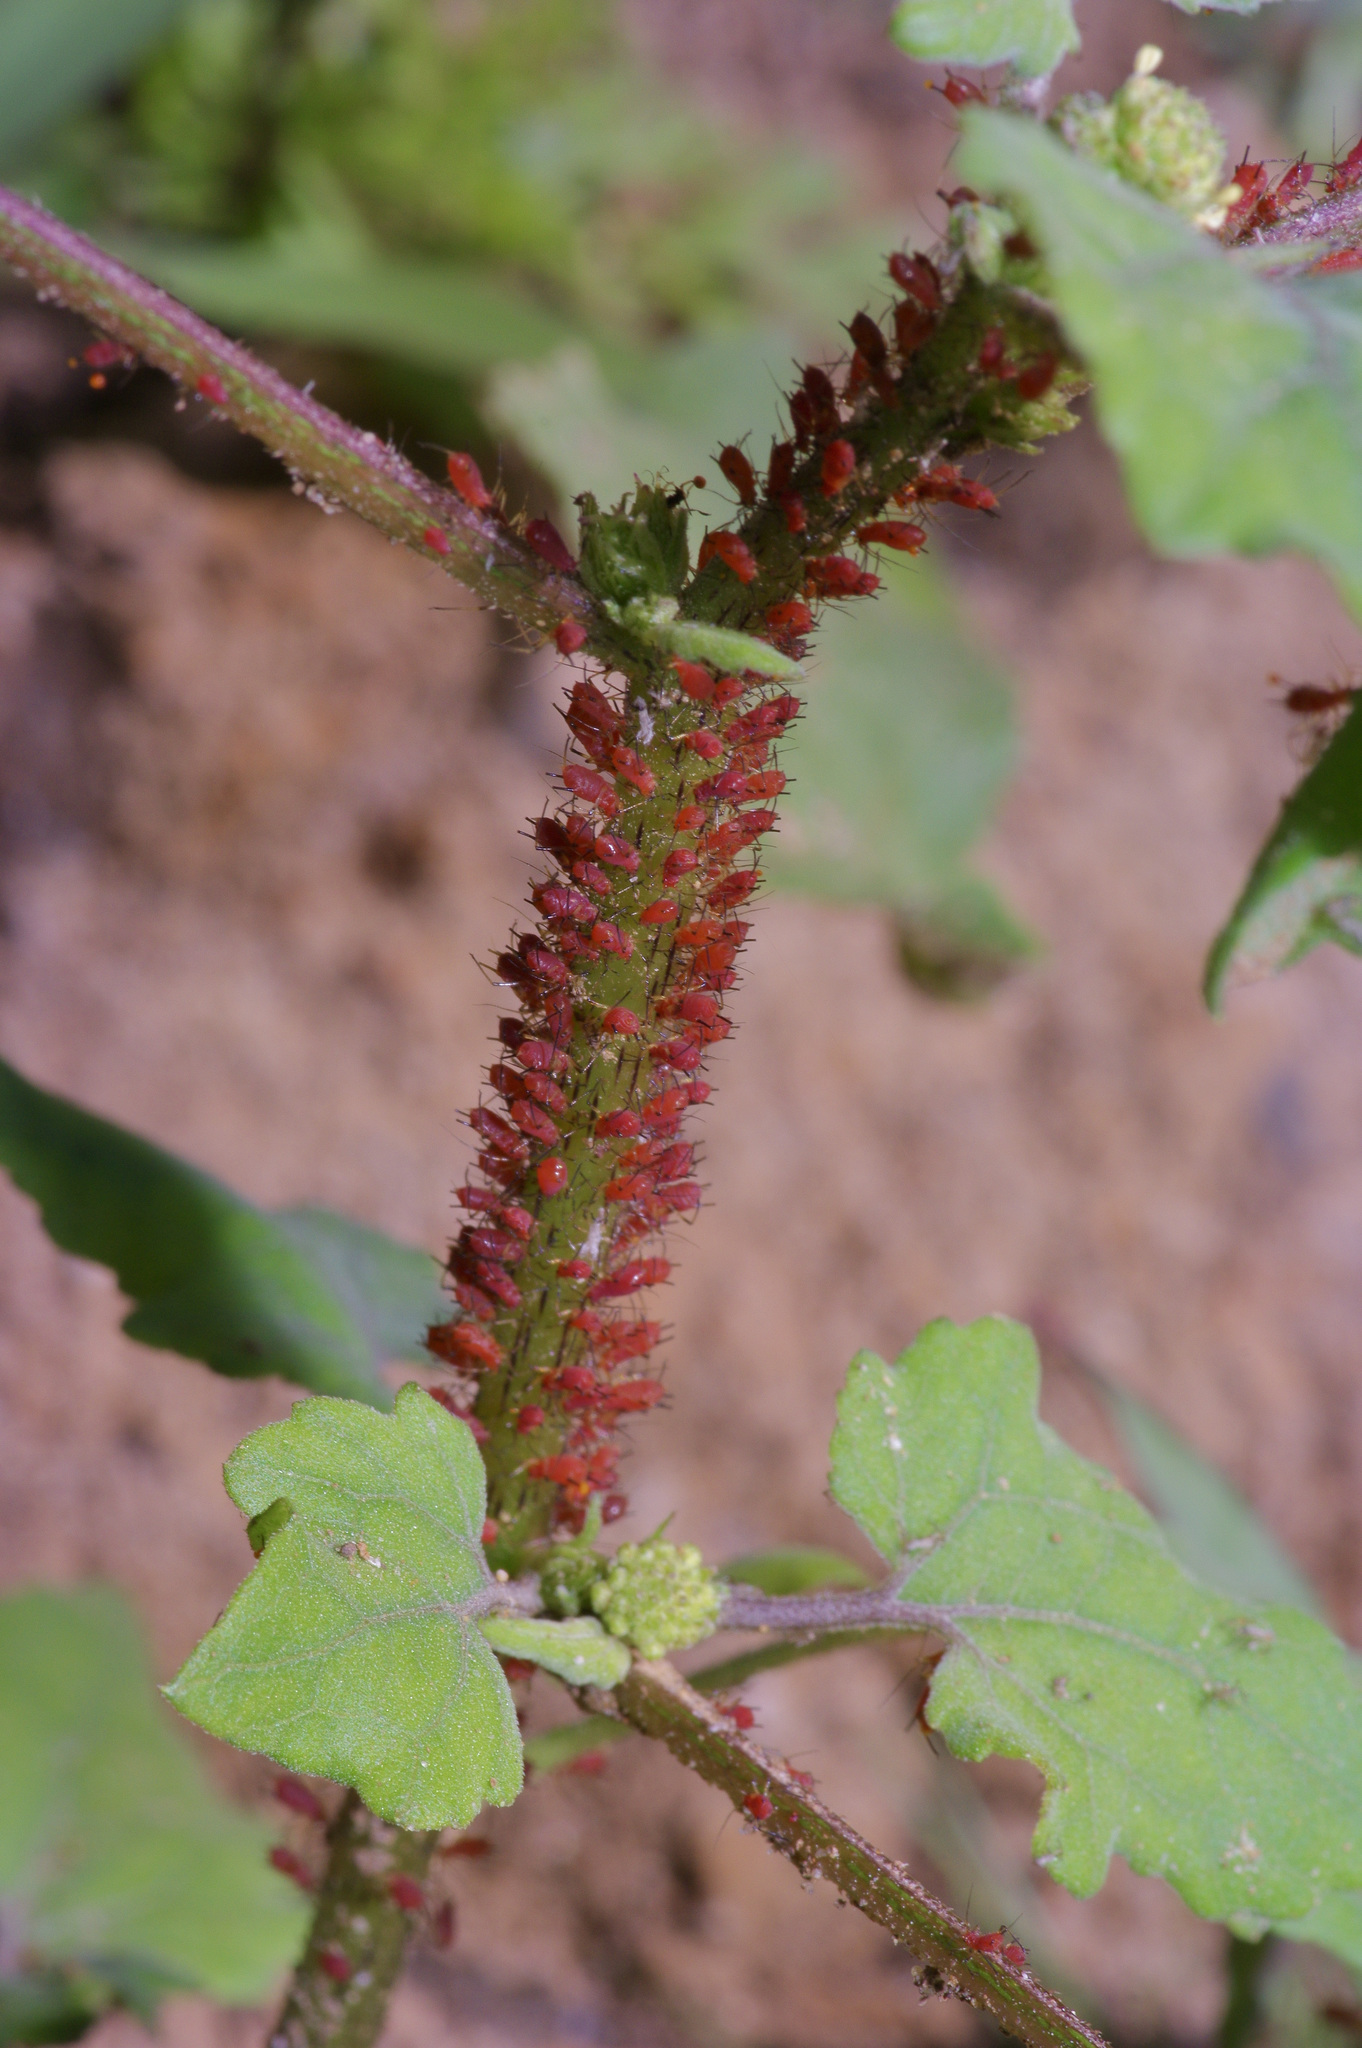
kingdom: Animalia
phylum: Arthropoda
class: Insecta
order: Hemiptera
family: Aphididae
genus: Uroleucon
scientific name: Uroleucon ambrosiae
